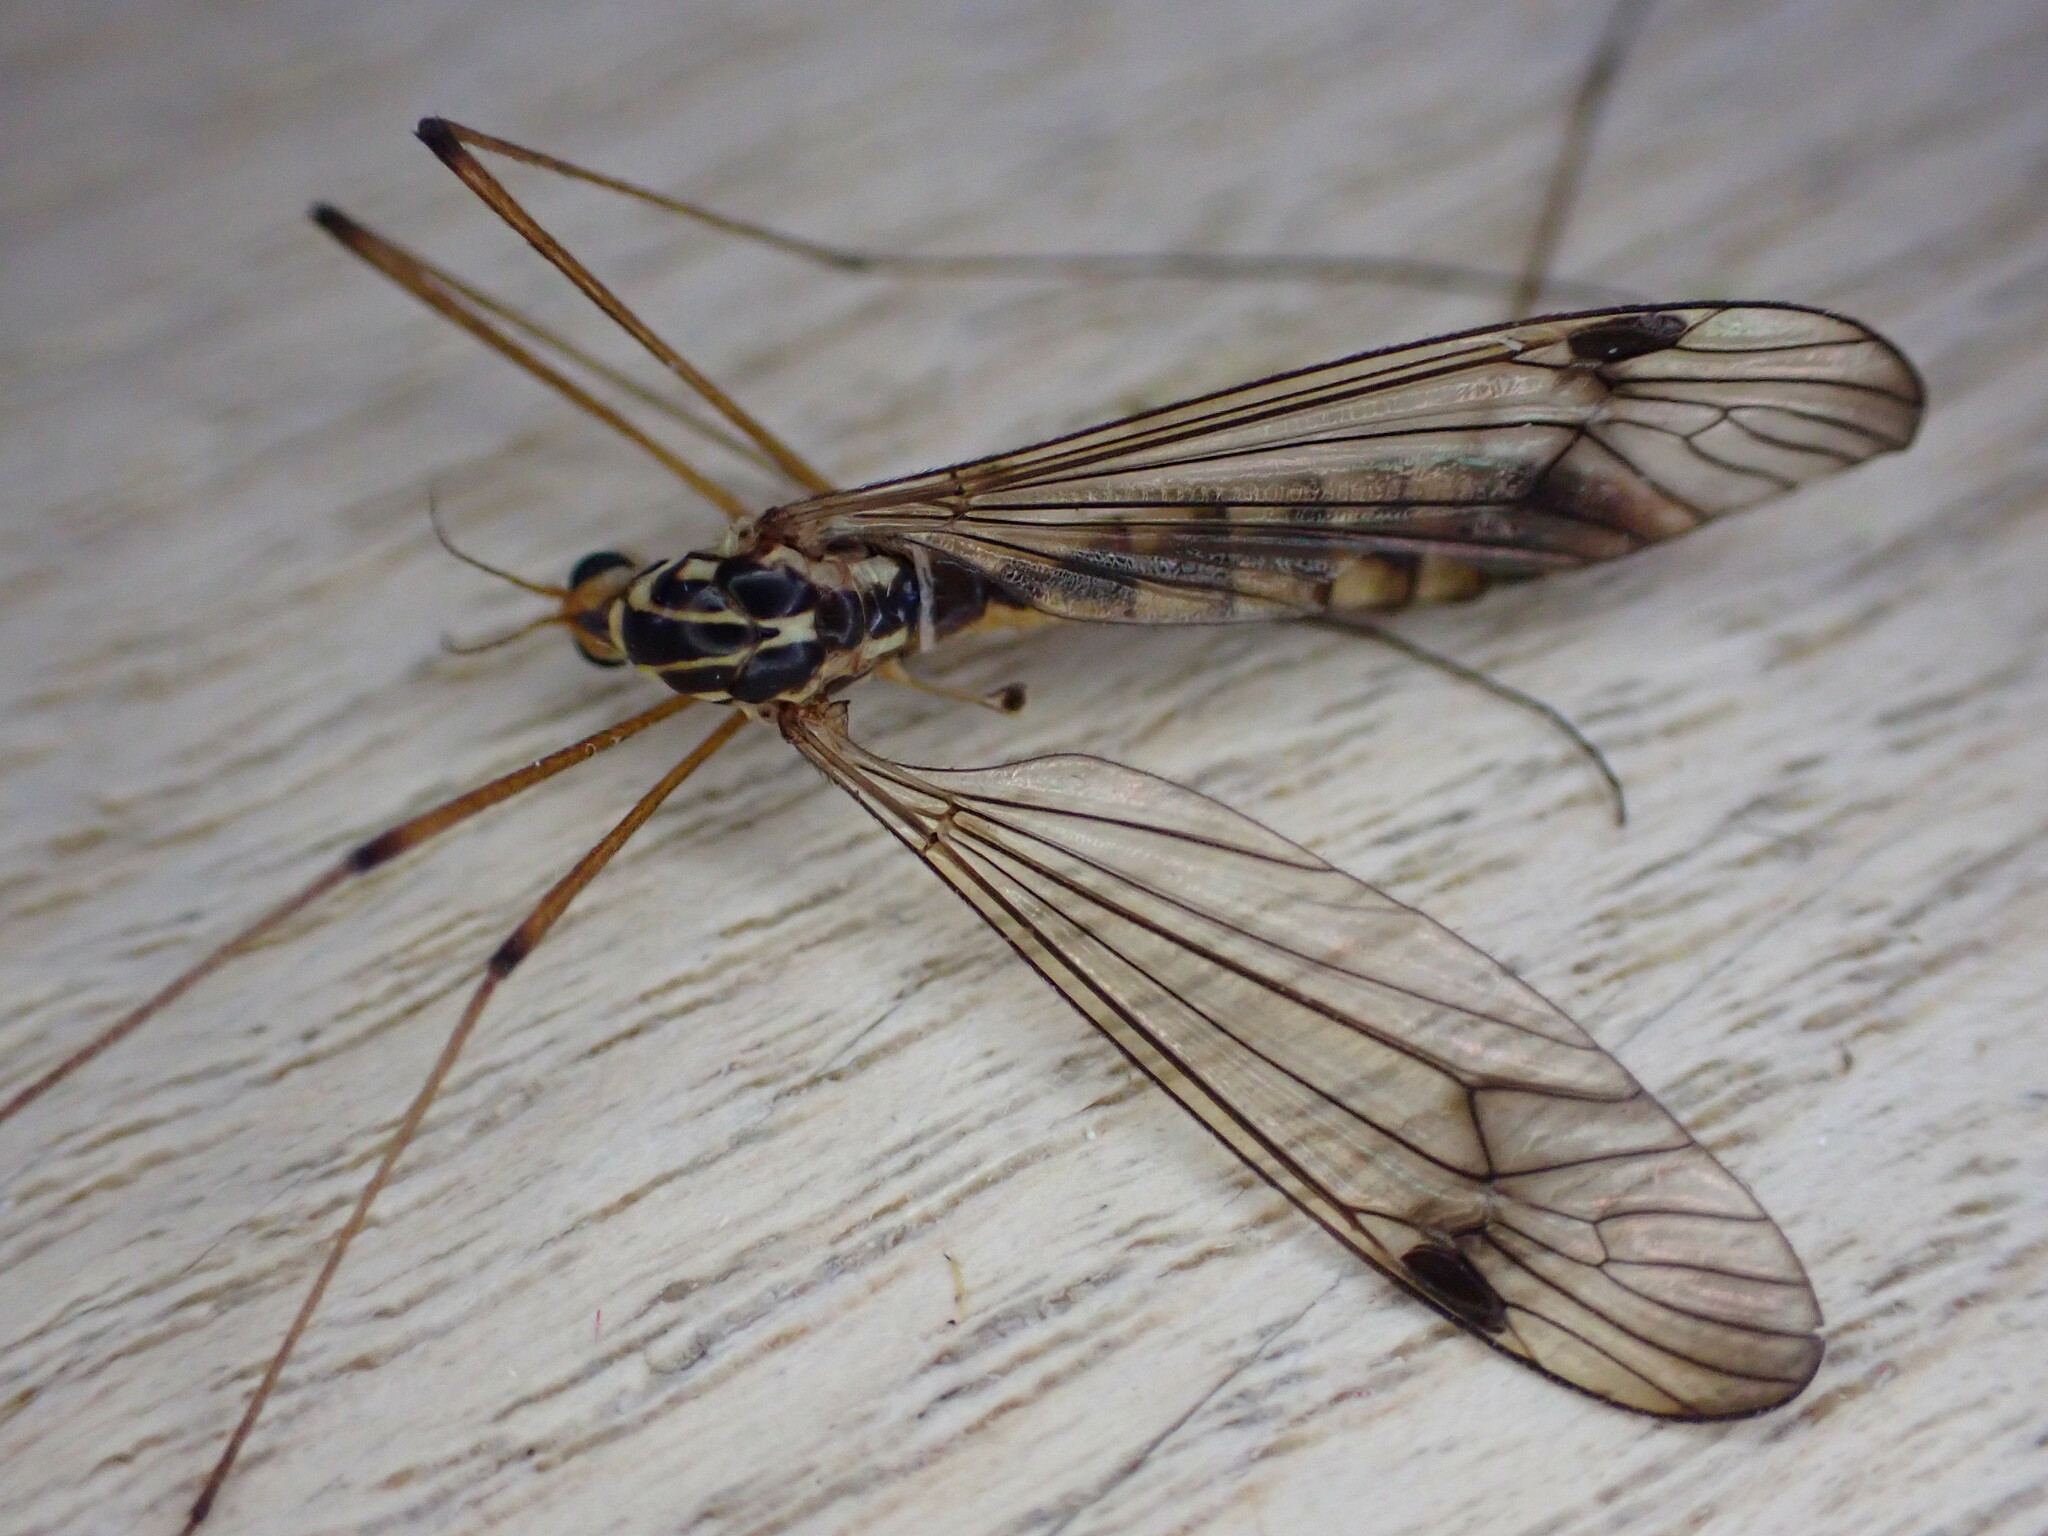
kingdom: Animalia
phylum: Arthropoda
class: Insecta
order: Diptera
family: Tipulidae
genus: Nephrotoma
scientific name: Nephrotoma quadrifaria
